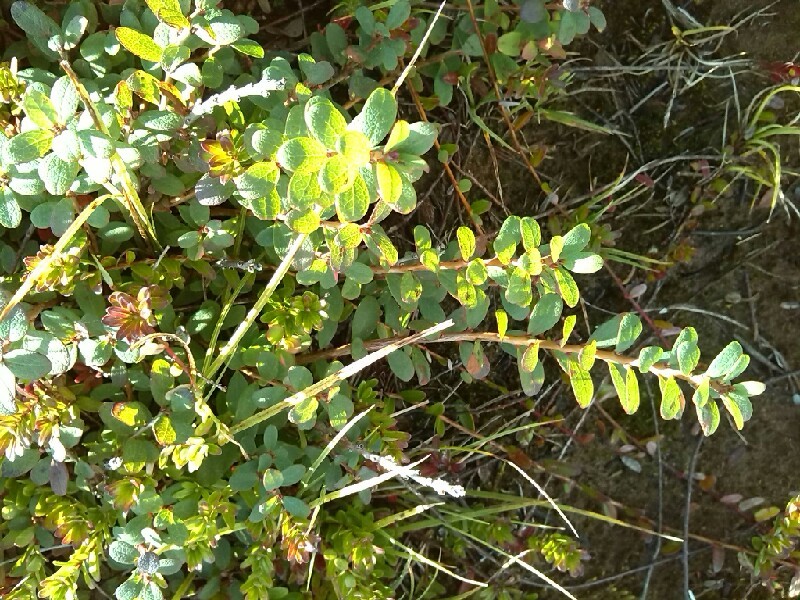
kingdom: Plantae
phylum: Tracheophyta
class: Magnoliopsida
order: Ericales
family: Ericaceae
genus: Vaccinium
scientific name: Vaccinium uliginosum
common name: Bog bilberry
